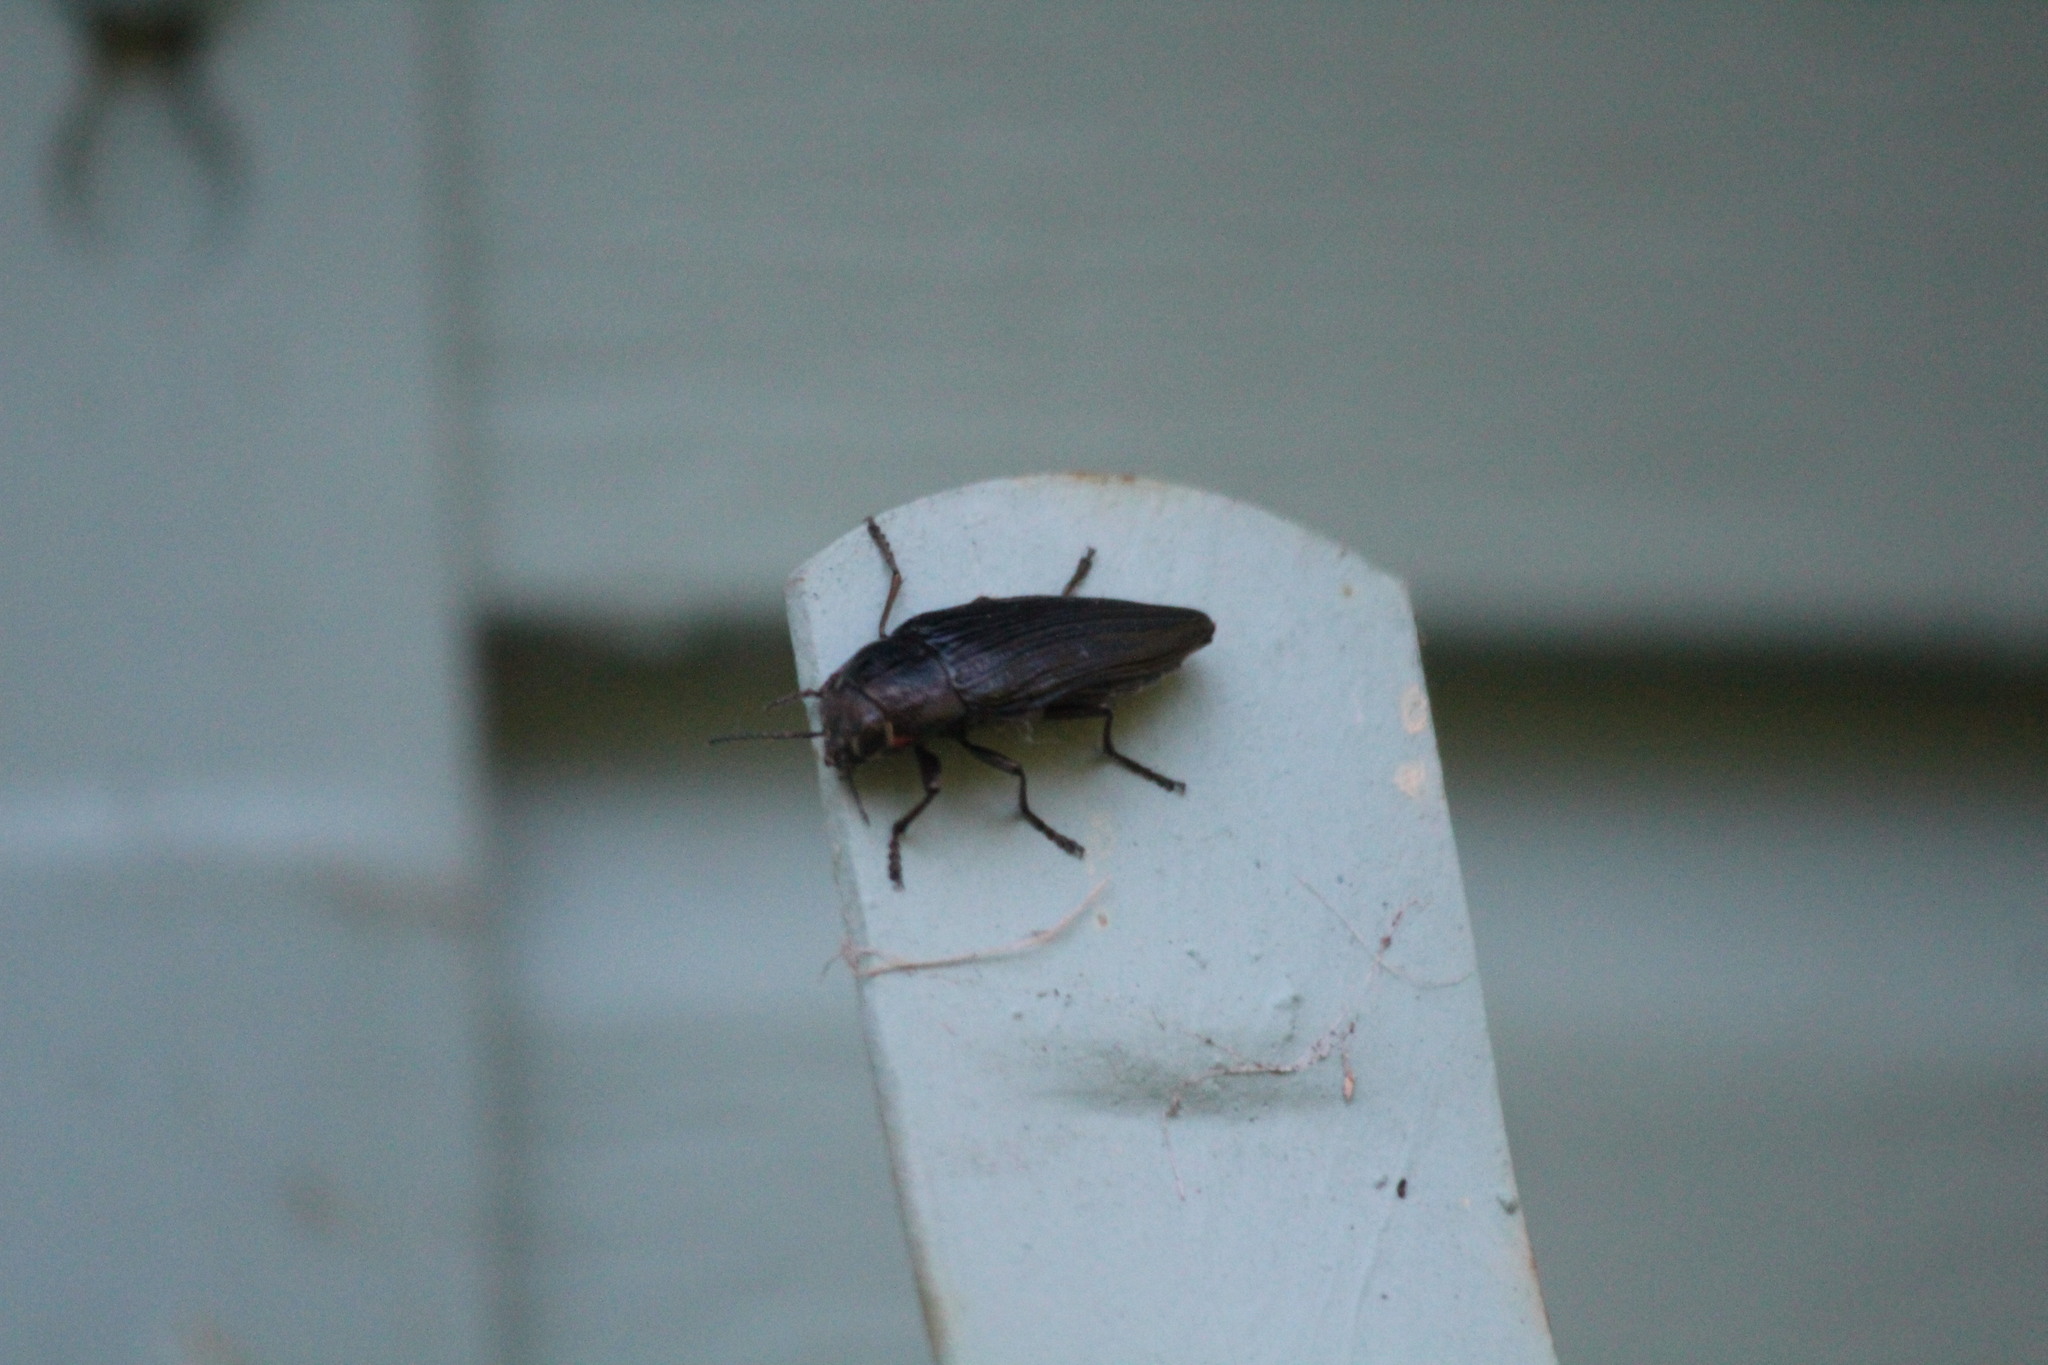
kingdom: Animalia
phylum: Arthropoda
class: Insecta
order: Coleoptera
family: Buprestidae
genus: Buprestis
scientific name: Buprestis lyrata
